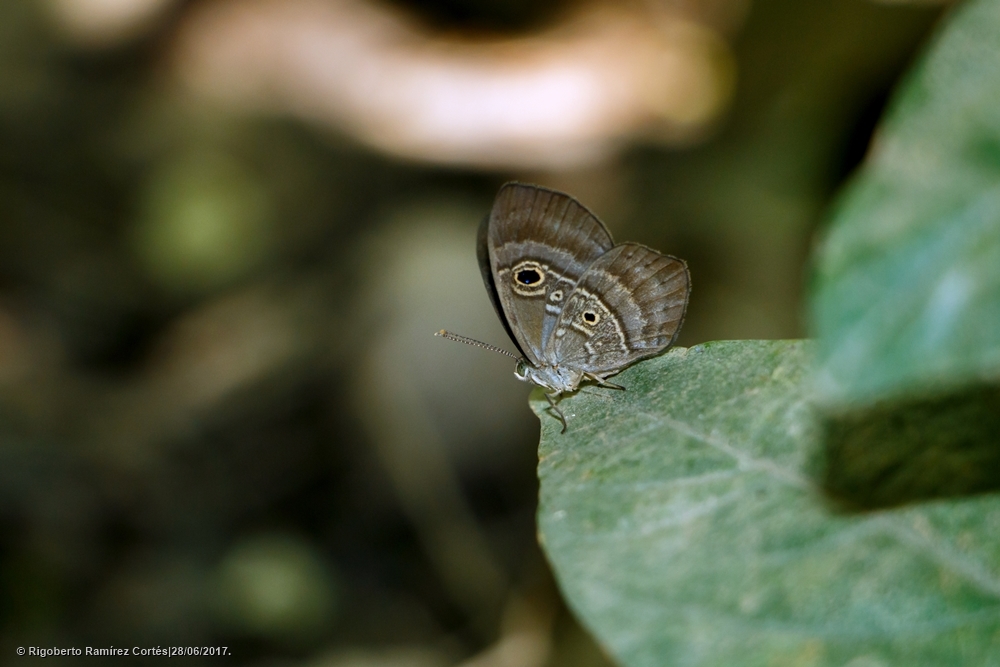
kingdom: Animalia
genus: Mesosemia
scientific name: Mesosemia lamachus
